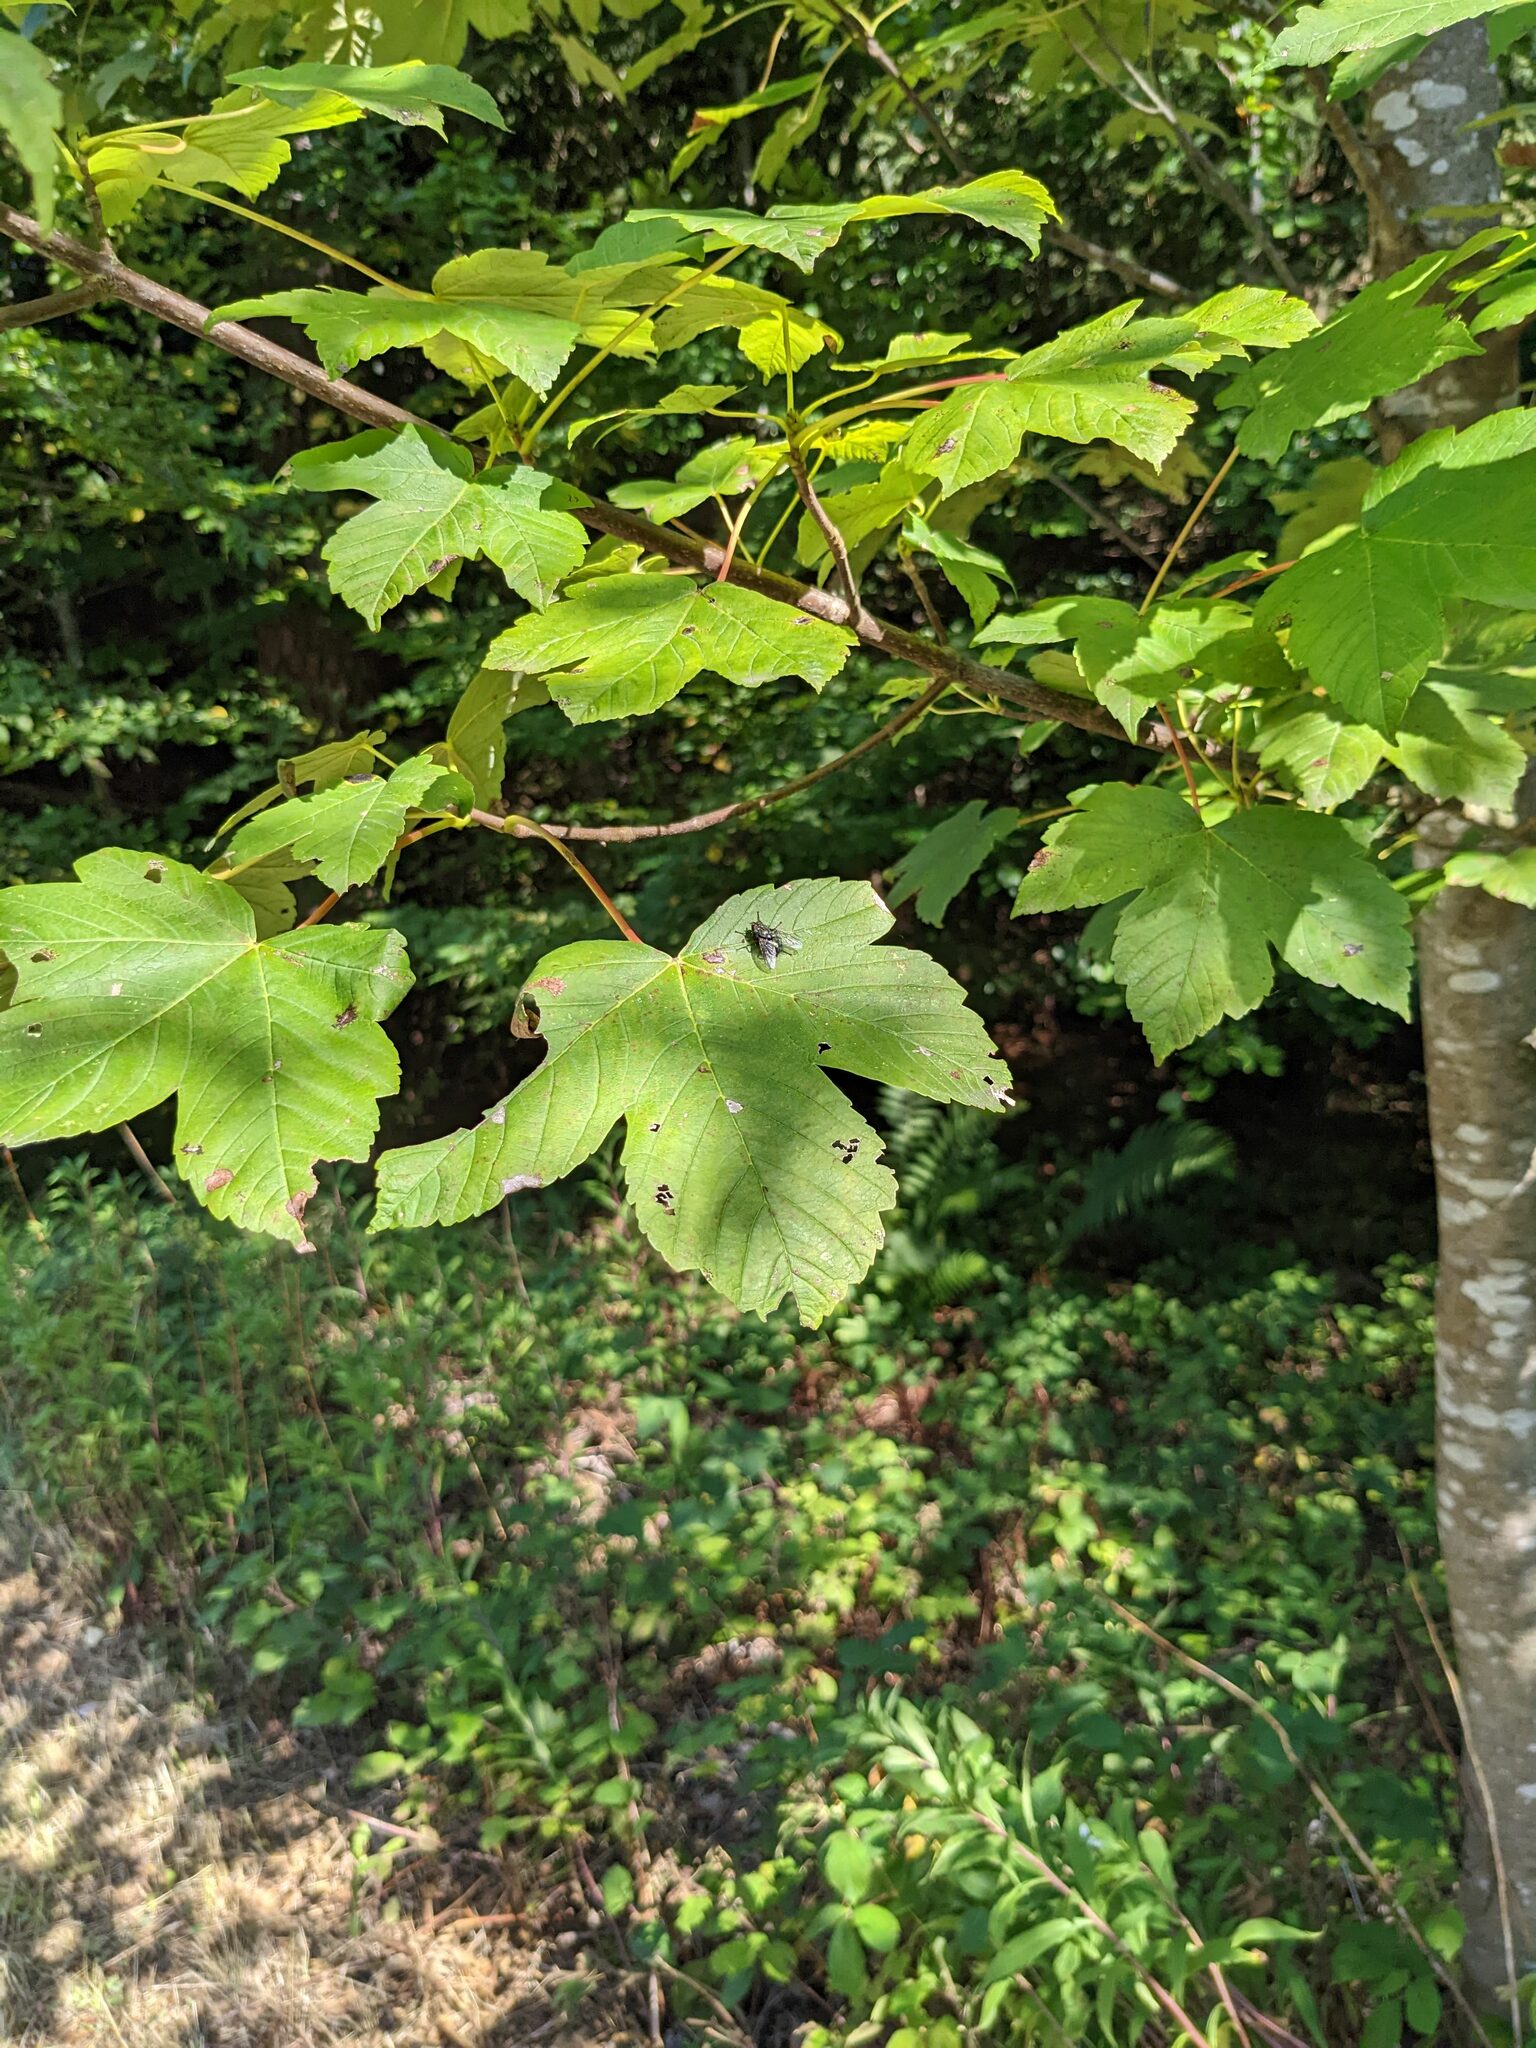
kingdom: Plantae
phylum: Tracheophyta
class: Magnoliopsida
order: Sapindales
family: Sapindaceae
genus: Acer
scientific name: Acer pseudoplatanus
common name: Sycamore
